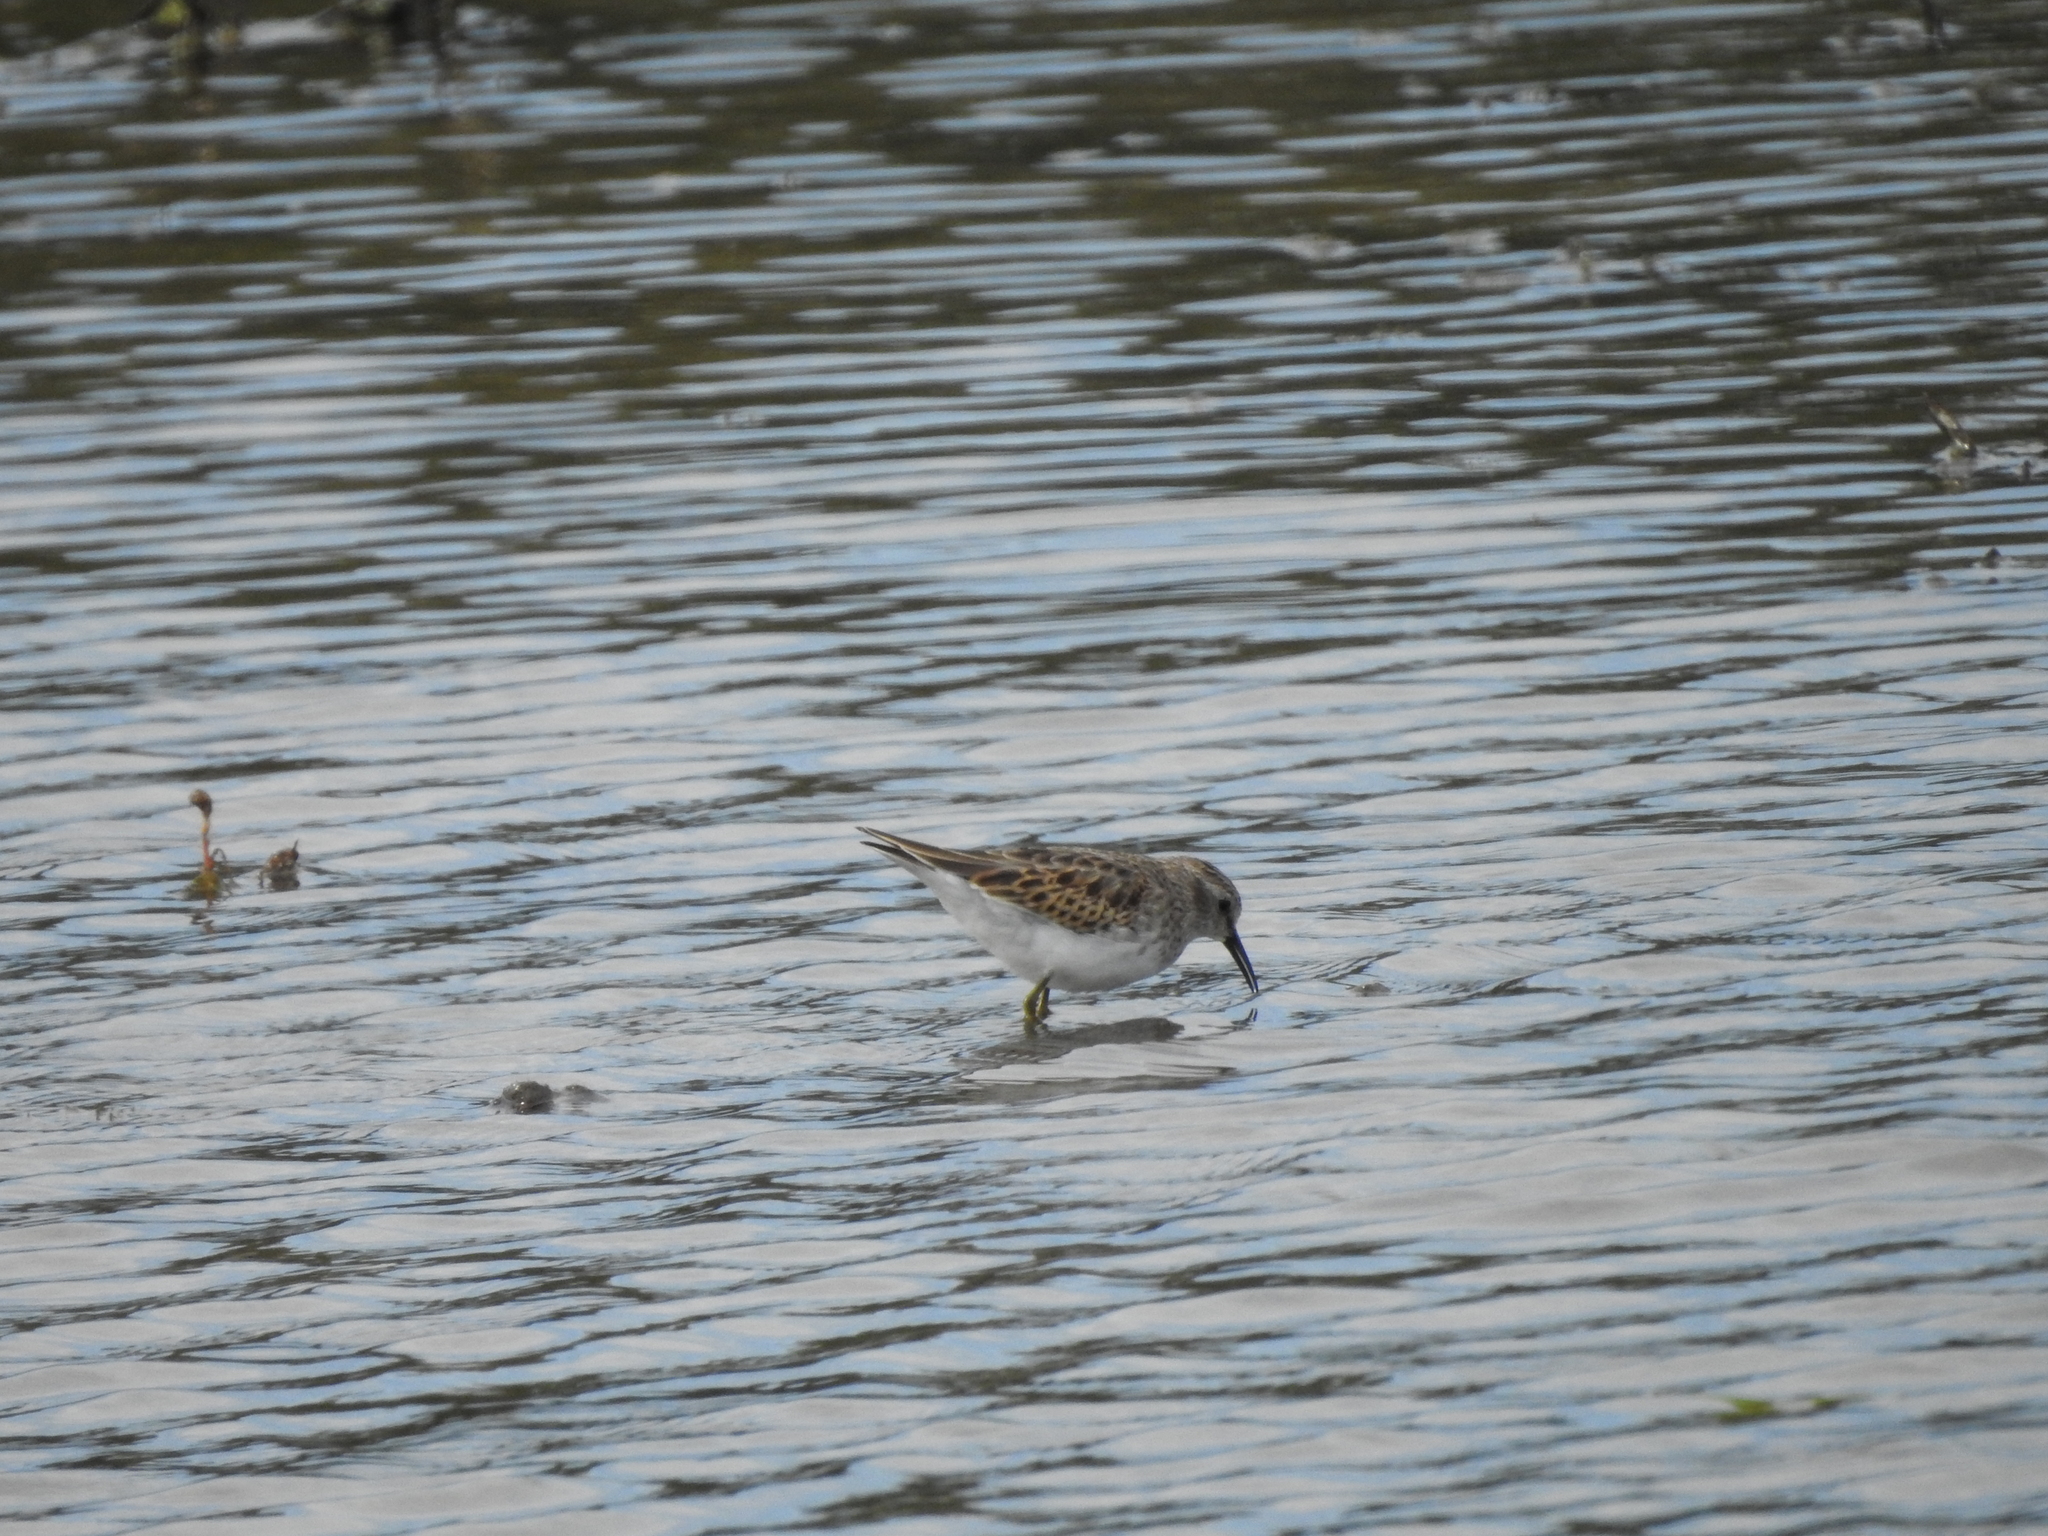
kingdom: Animalia
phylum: Chordata
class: Aves
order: Charadriiformes
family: Scolopacidae
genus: Calidris
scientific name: Calidris minutilla
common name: Least sandpiper
